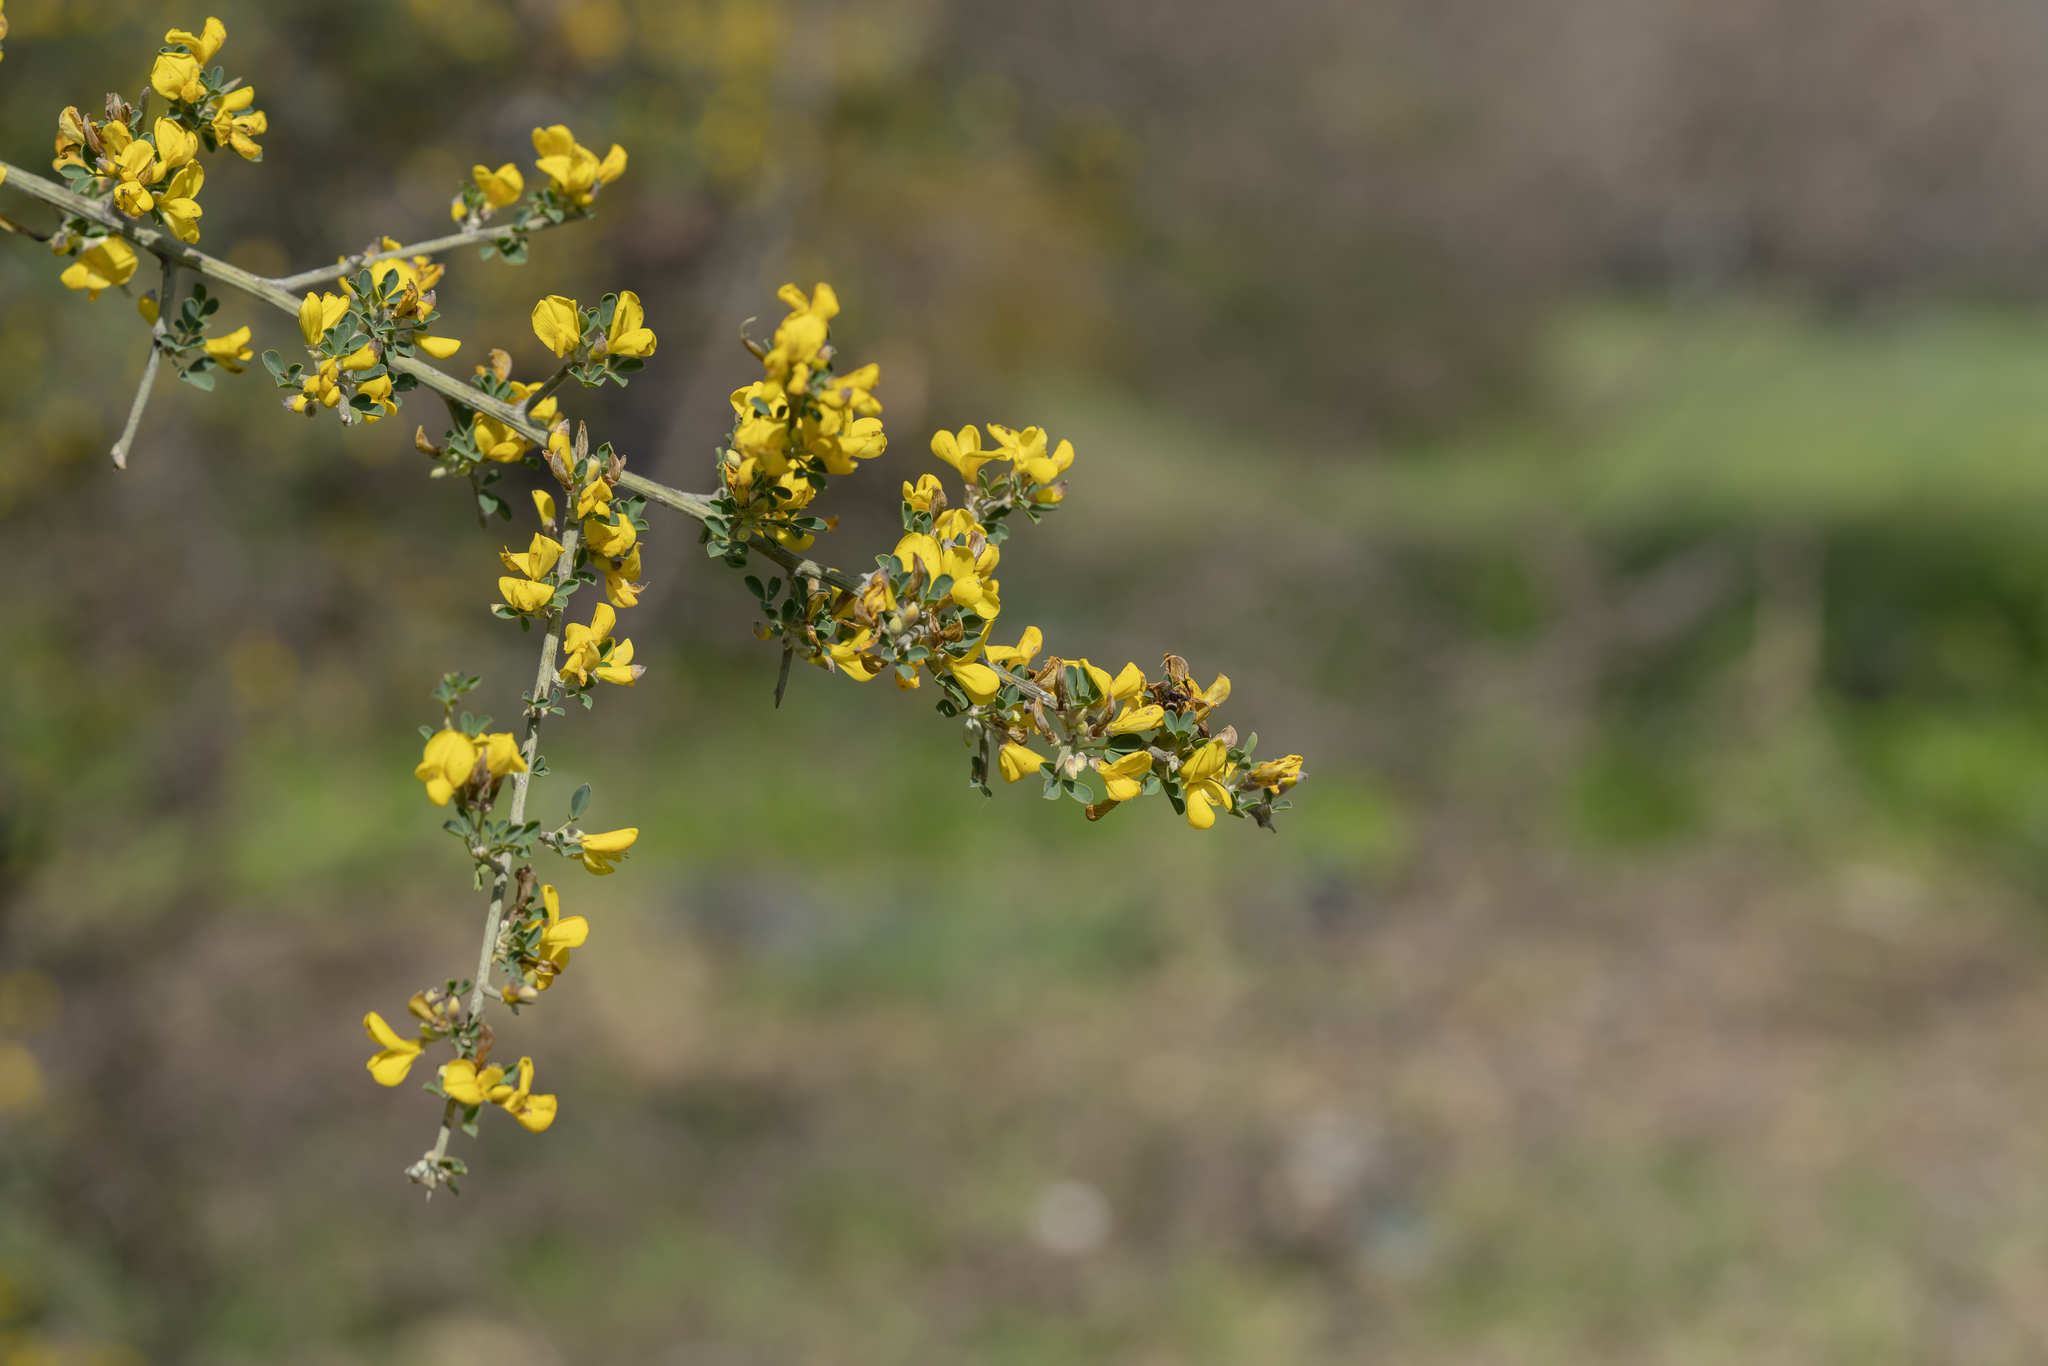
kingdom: Plantae
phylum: Tracheophyta
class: Magnoliopsida
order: Fabales
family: Fabaceae
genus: Calicotome
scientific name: Calicotome villosa
